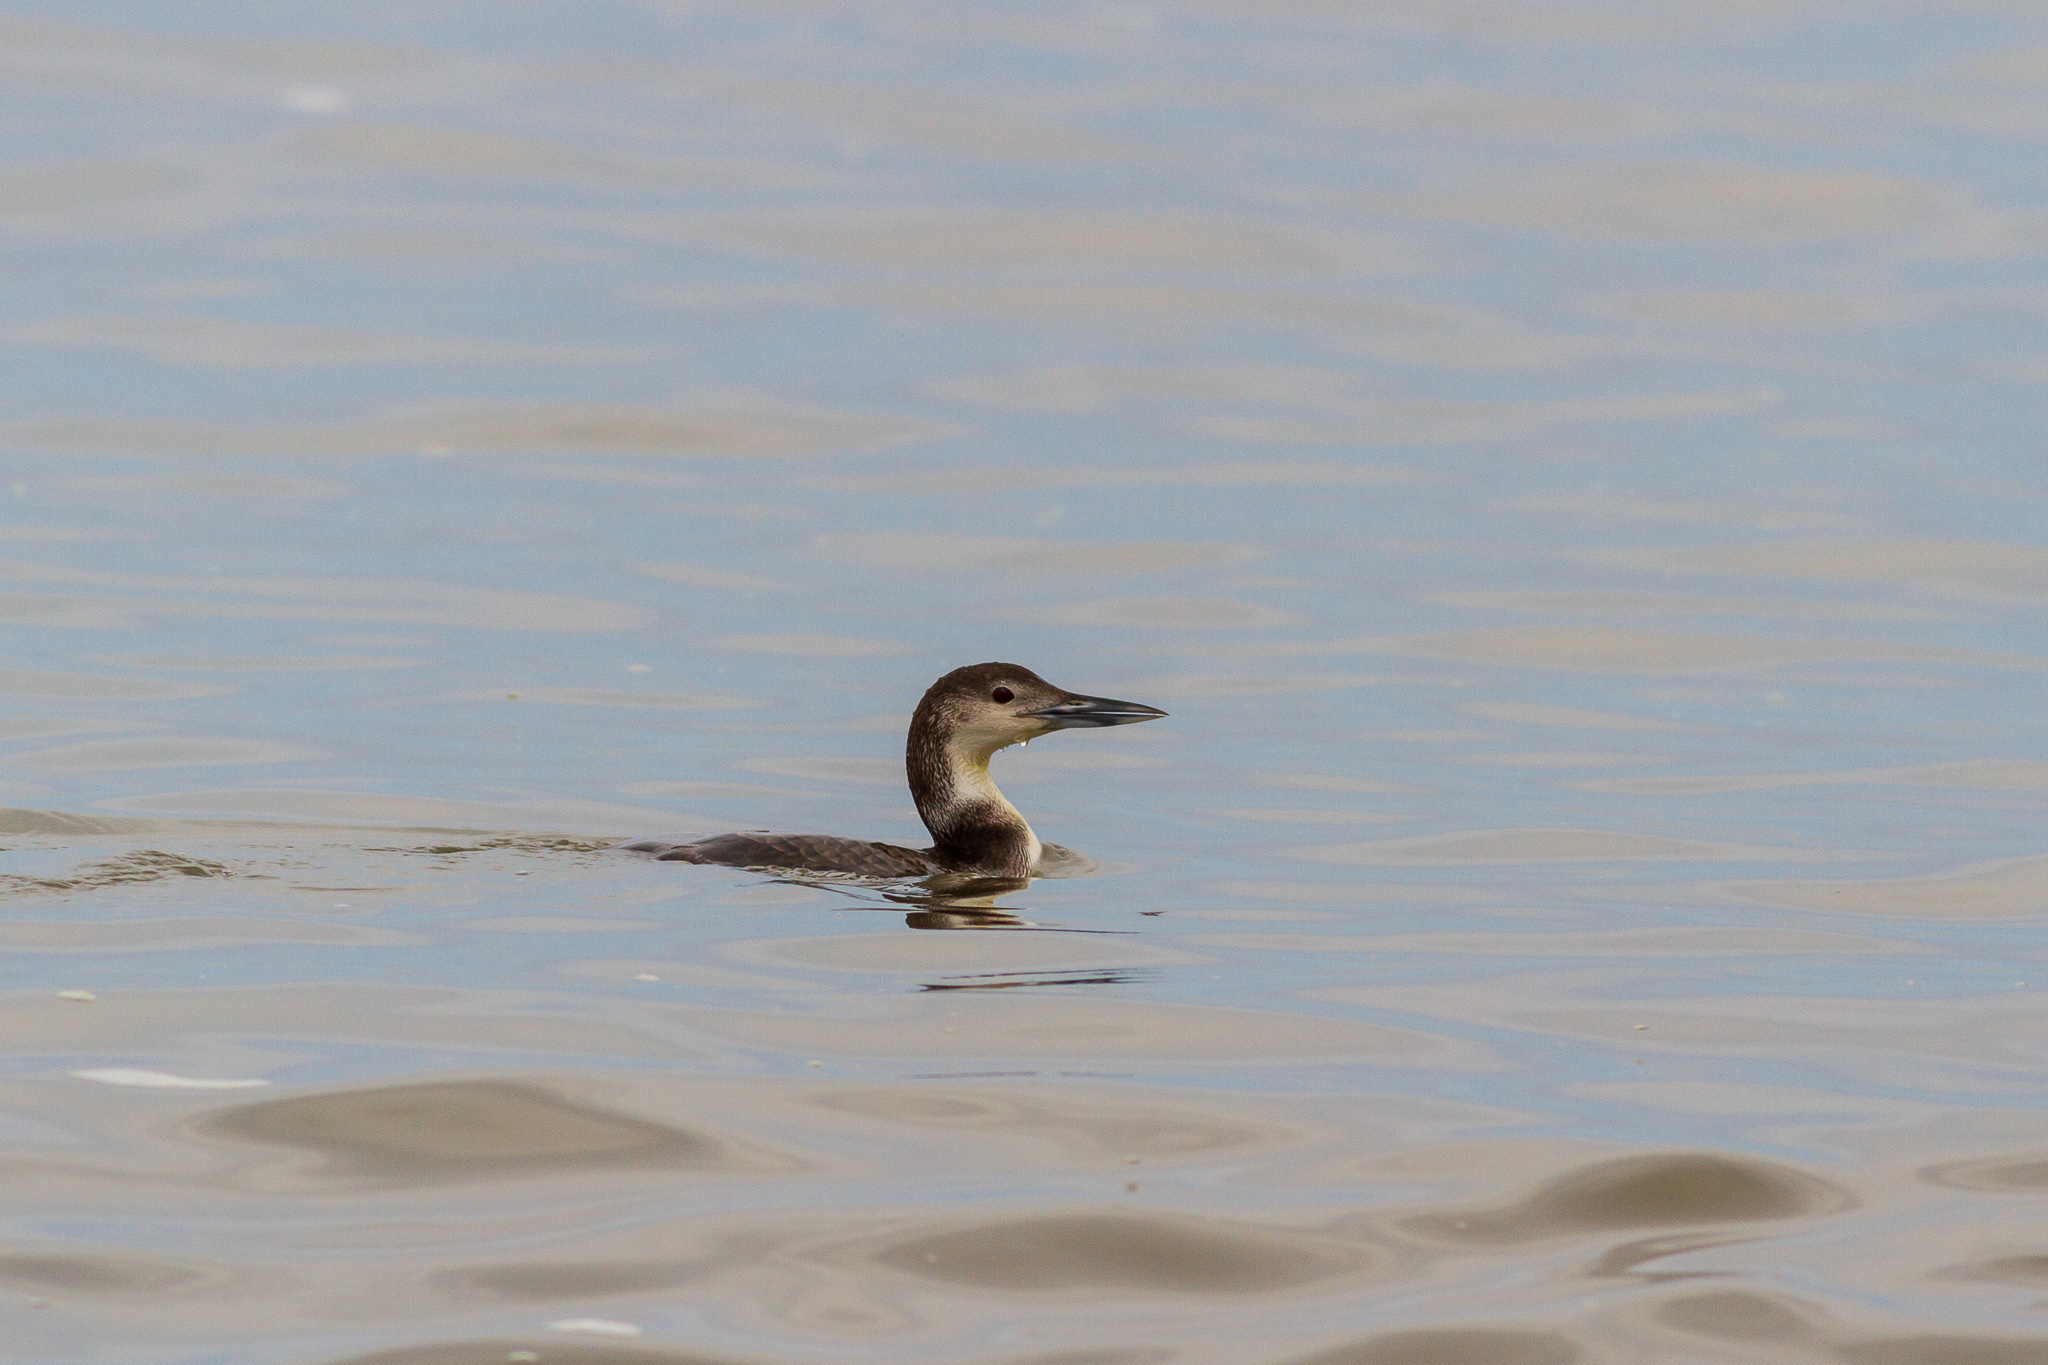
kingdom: Animalia
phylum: Chordata
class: Aves
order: Gaviiformes
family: Gaviidae
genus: Gavia
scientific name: Gavia immer
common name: Common loon
